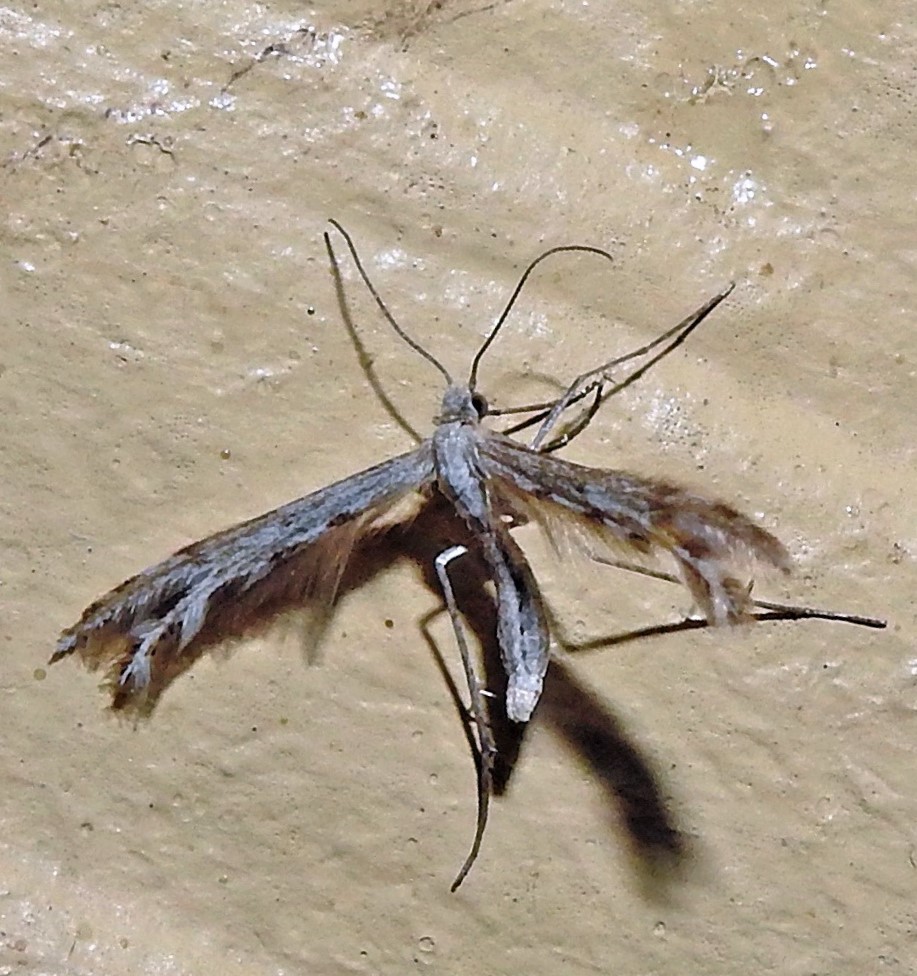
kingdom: Animalia
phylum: Arthropoda
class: Insecta
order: Lepidoptera
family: Pterophoridae
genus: Singularia
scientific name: Singularia alternaria
